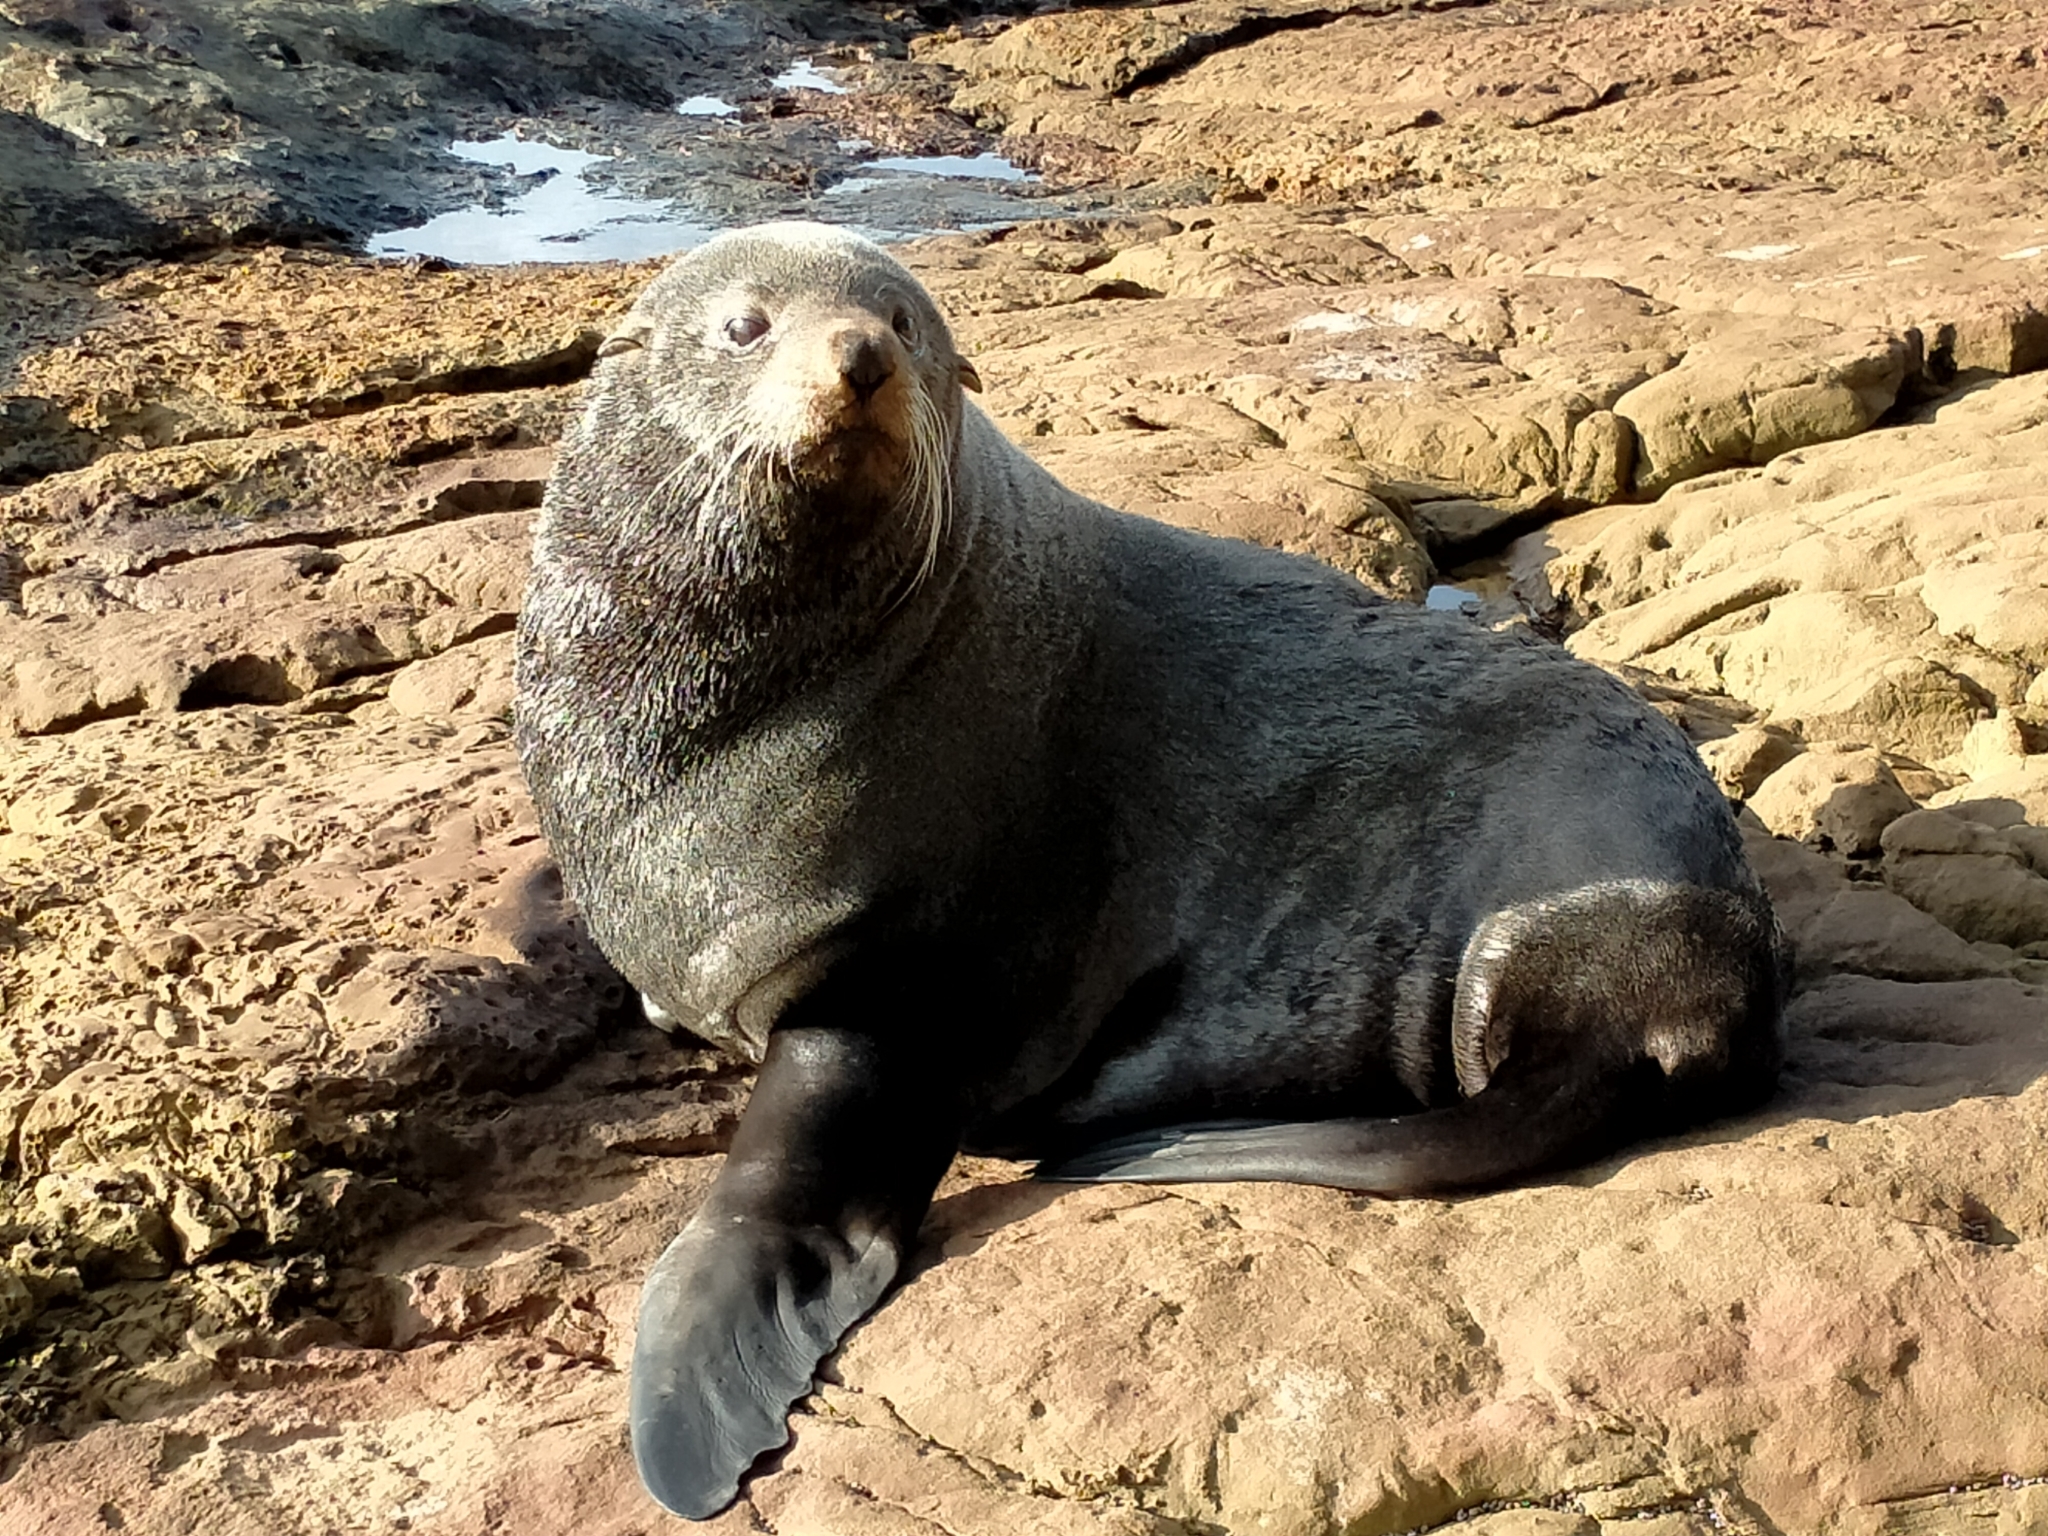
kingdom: Animalia
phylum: Chordata
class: Mammalia
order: Carnivora
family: Otariidae
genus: Arctocephalus
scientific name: Arctocephalus forsteri
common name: New zealand fur seal
